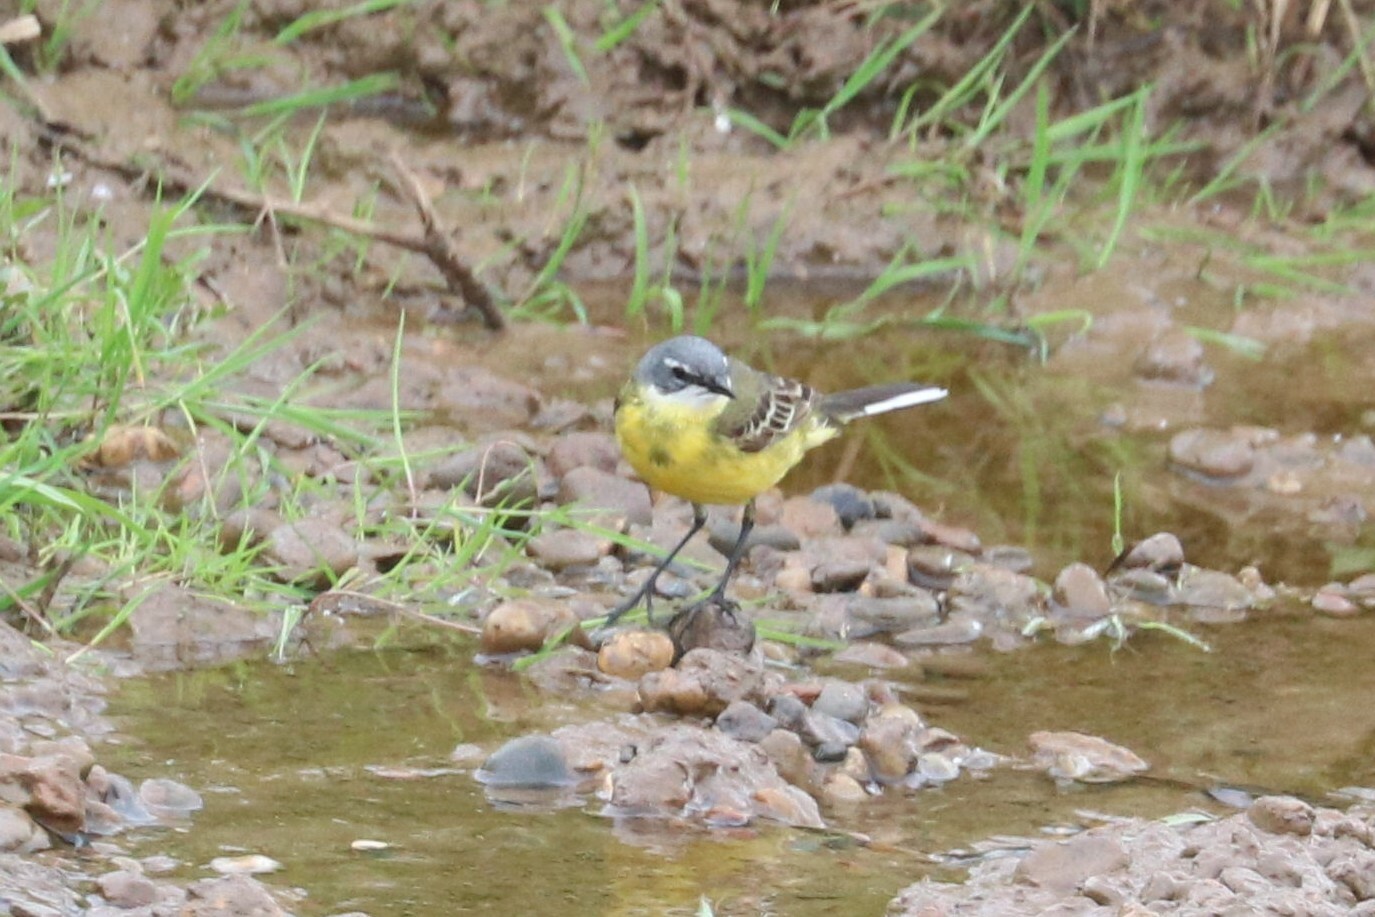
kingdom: Animalia
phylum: Chordata
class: Aves
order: Passeriformes
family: Motacillidae
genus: Motacilla
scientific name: Motacilla flava
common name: Western yellow wagtail
